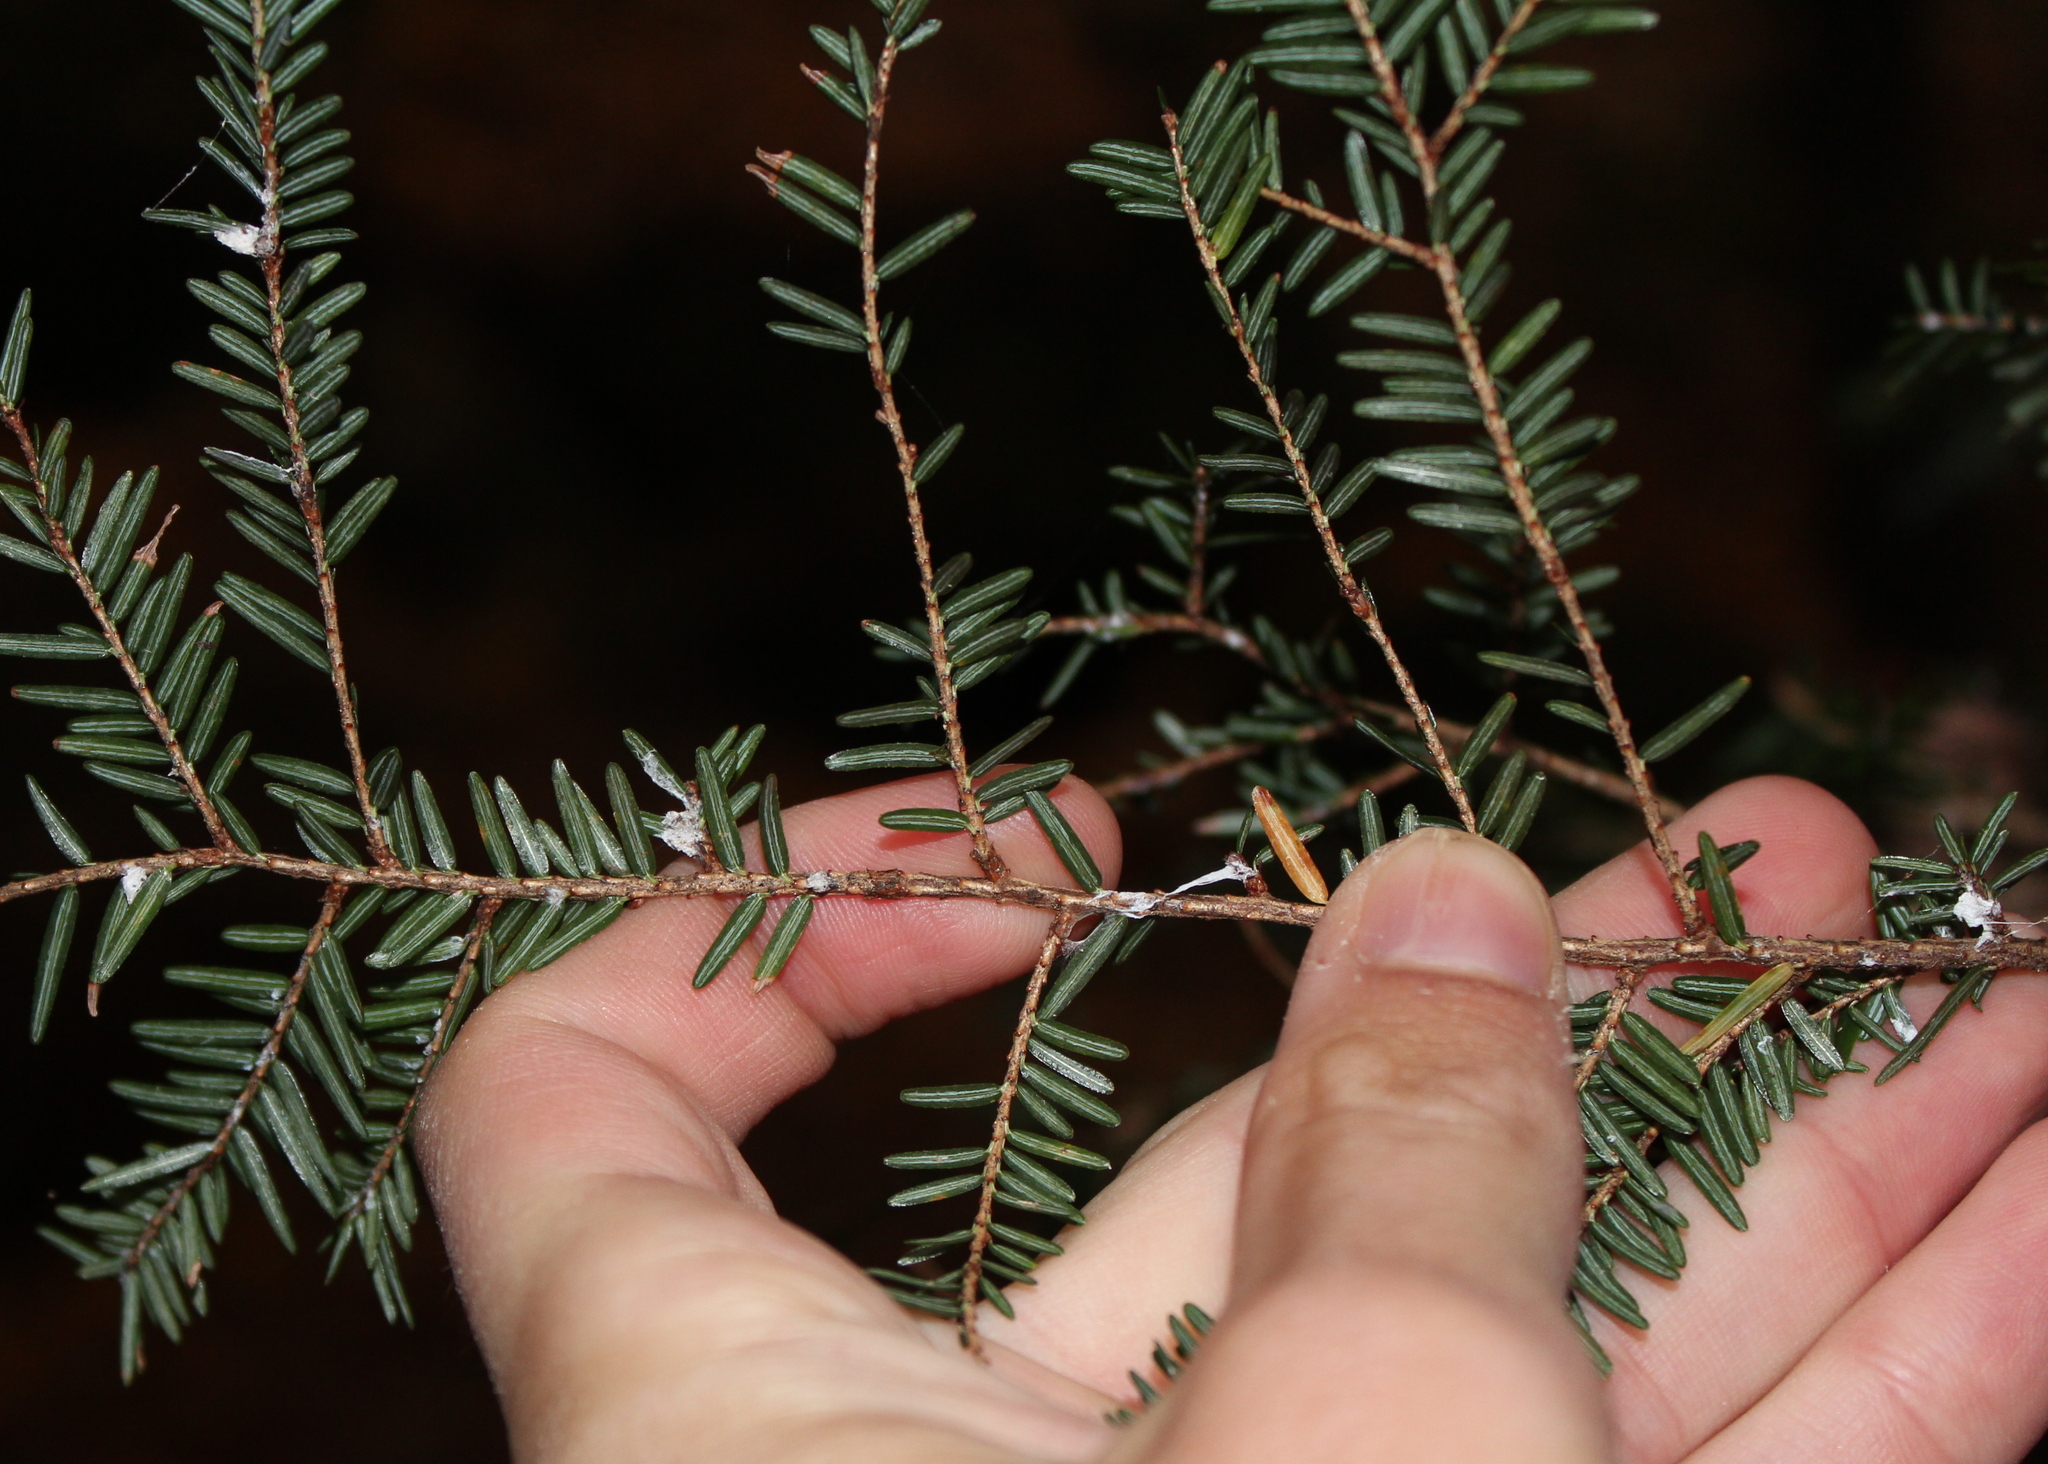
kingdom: Animalia
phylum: Arthropoda
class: Insecta
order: Hemiptera
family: Adelgidae
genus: Adelges
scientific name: Adelges tsugae
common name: Hemlock woolly adelgid
